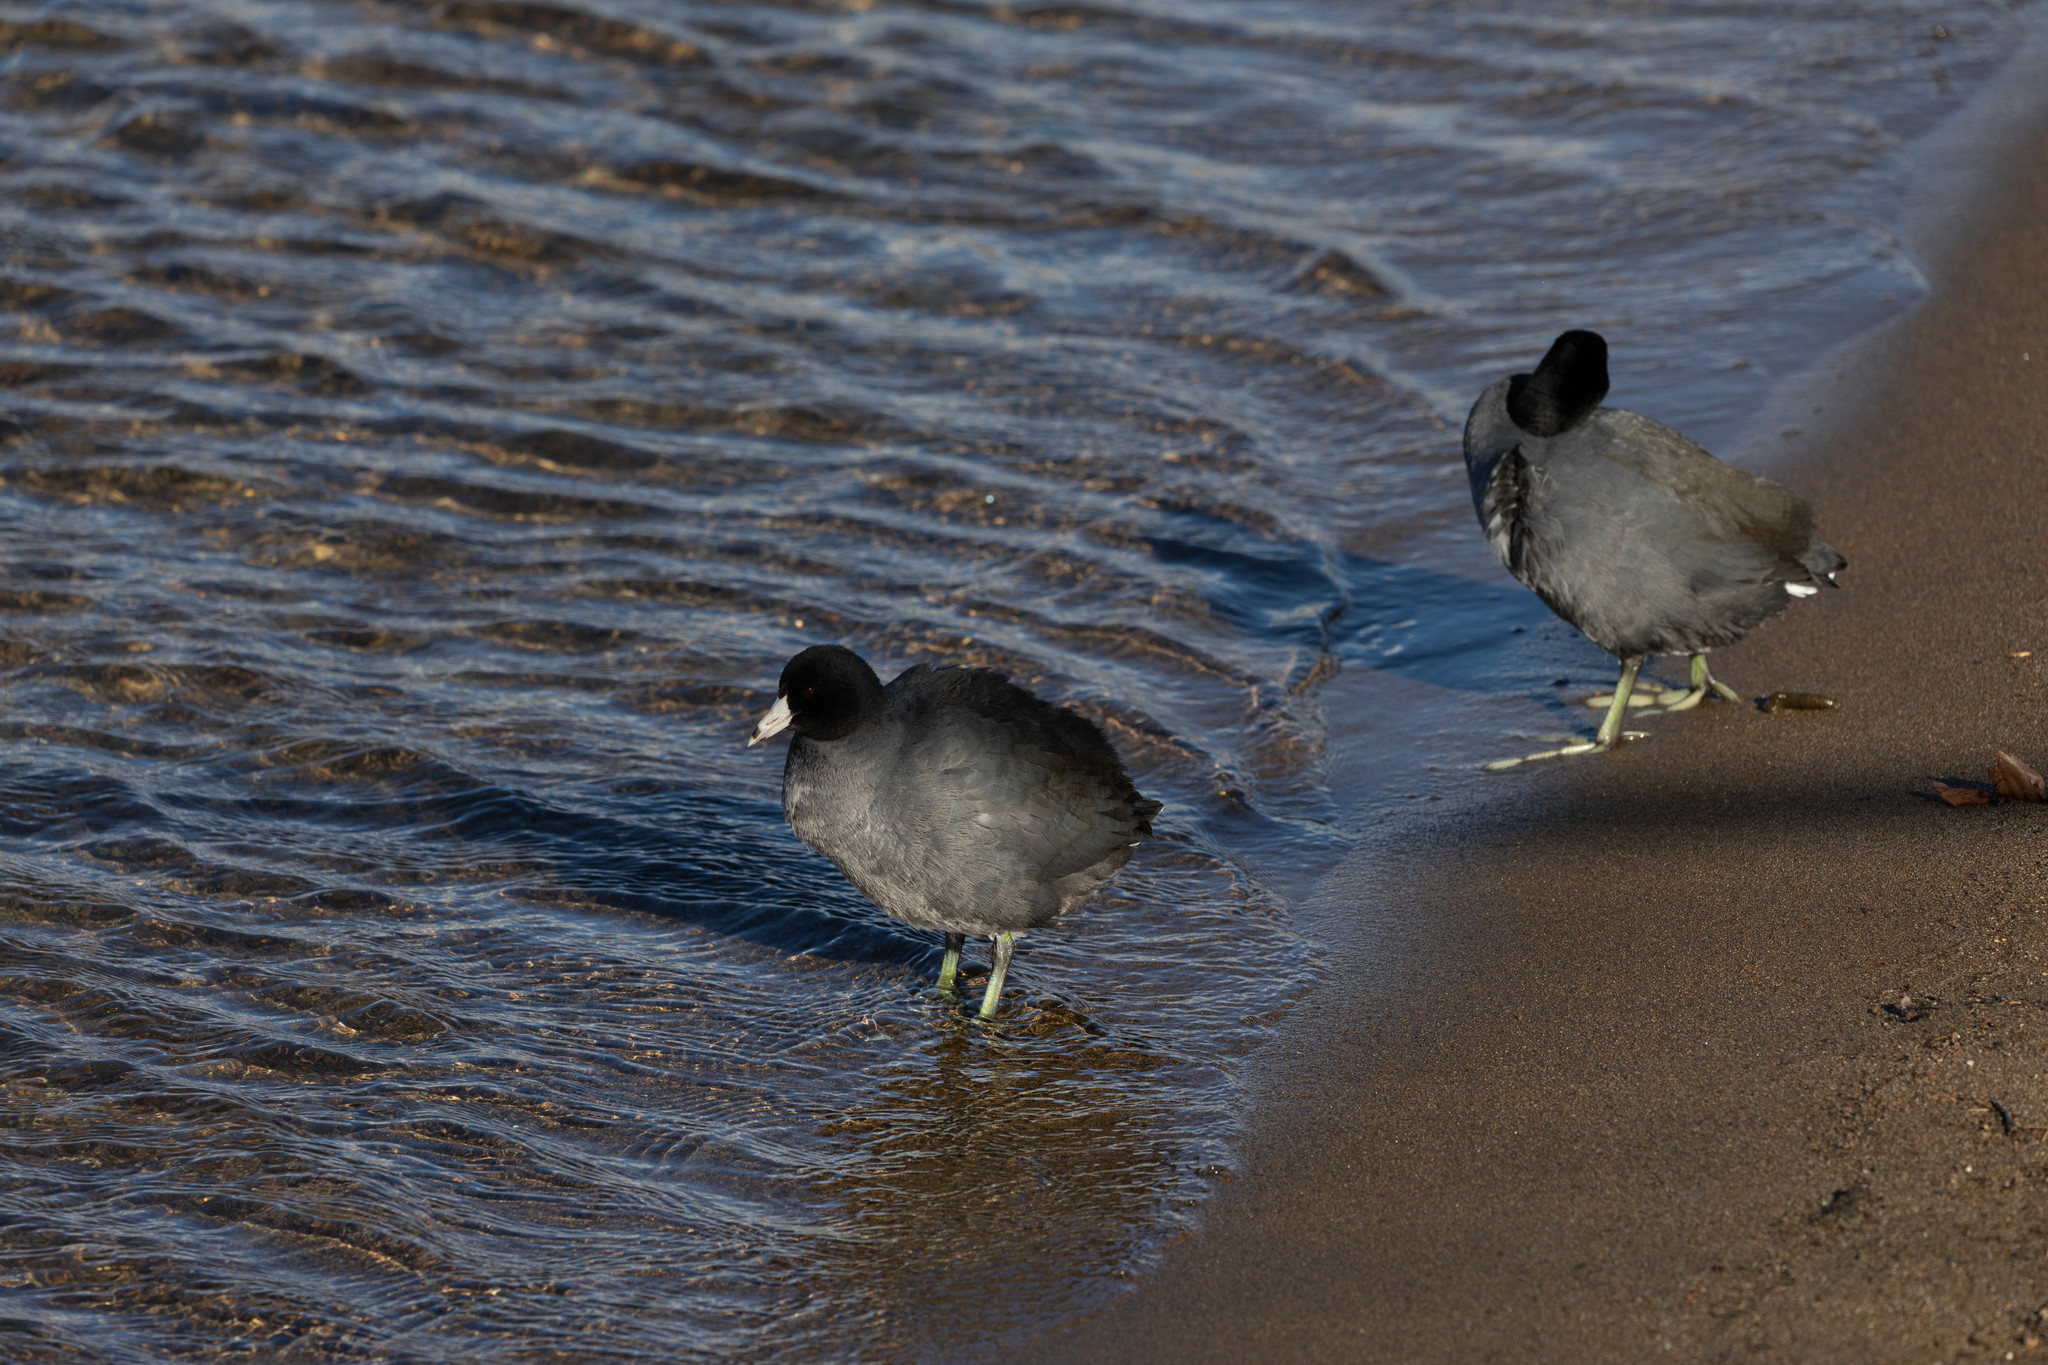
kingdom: Animalia
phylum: Chordata
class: Aves
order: Gruiformes
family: Rallidae
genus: Fulica
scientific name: Fulica americana
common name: American coot
